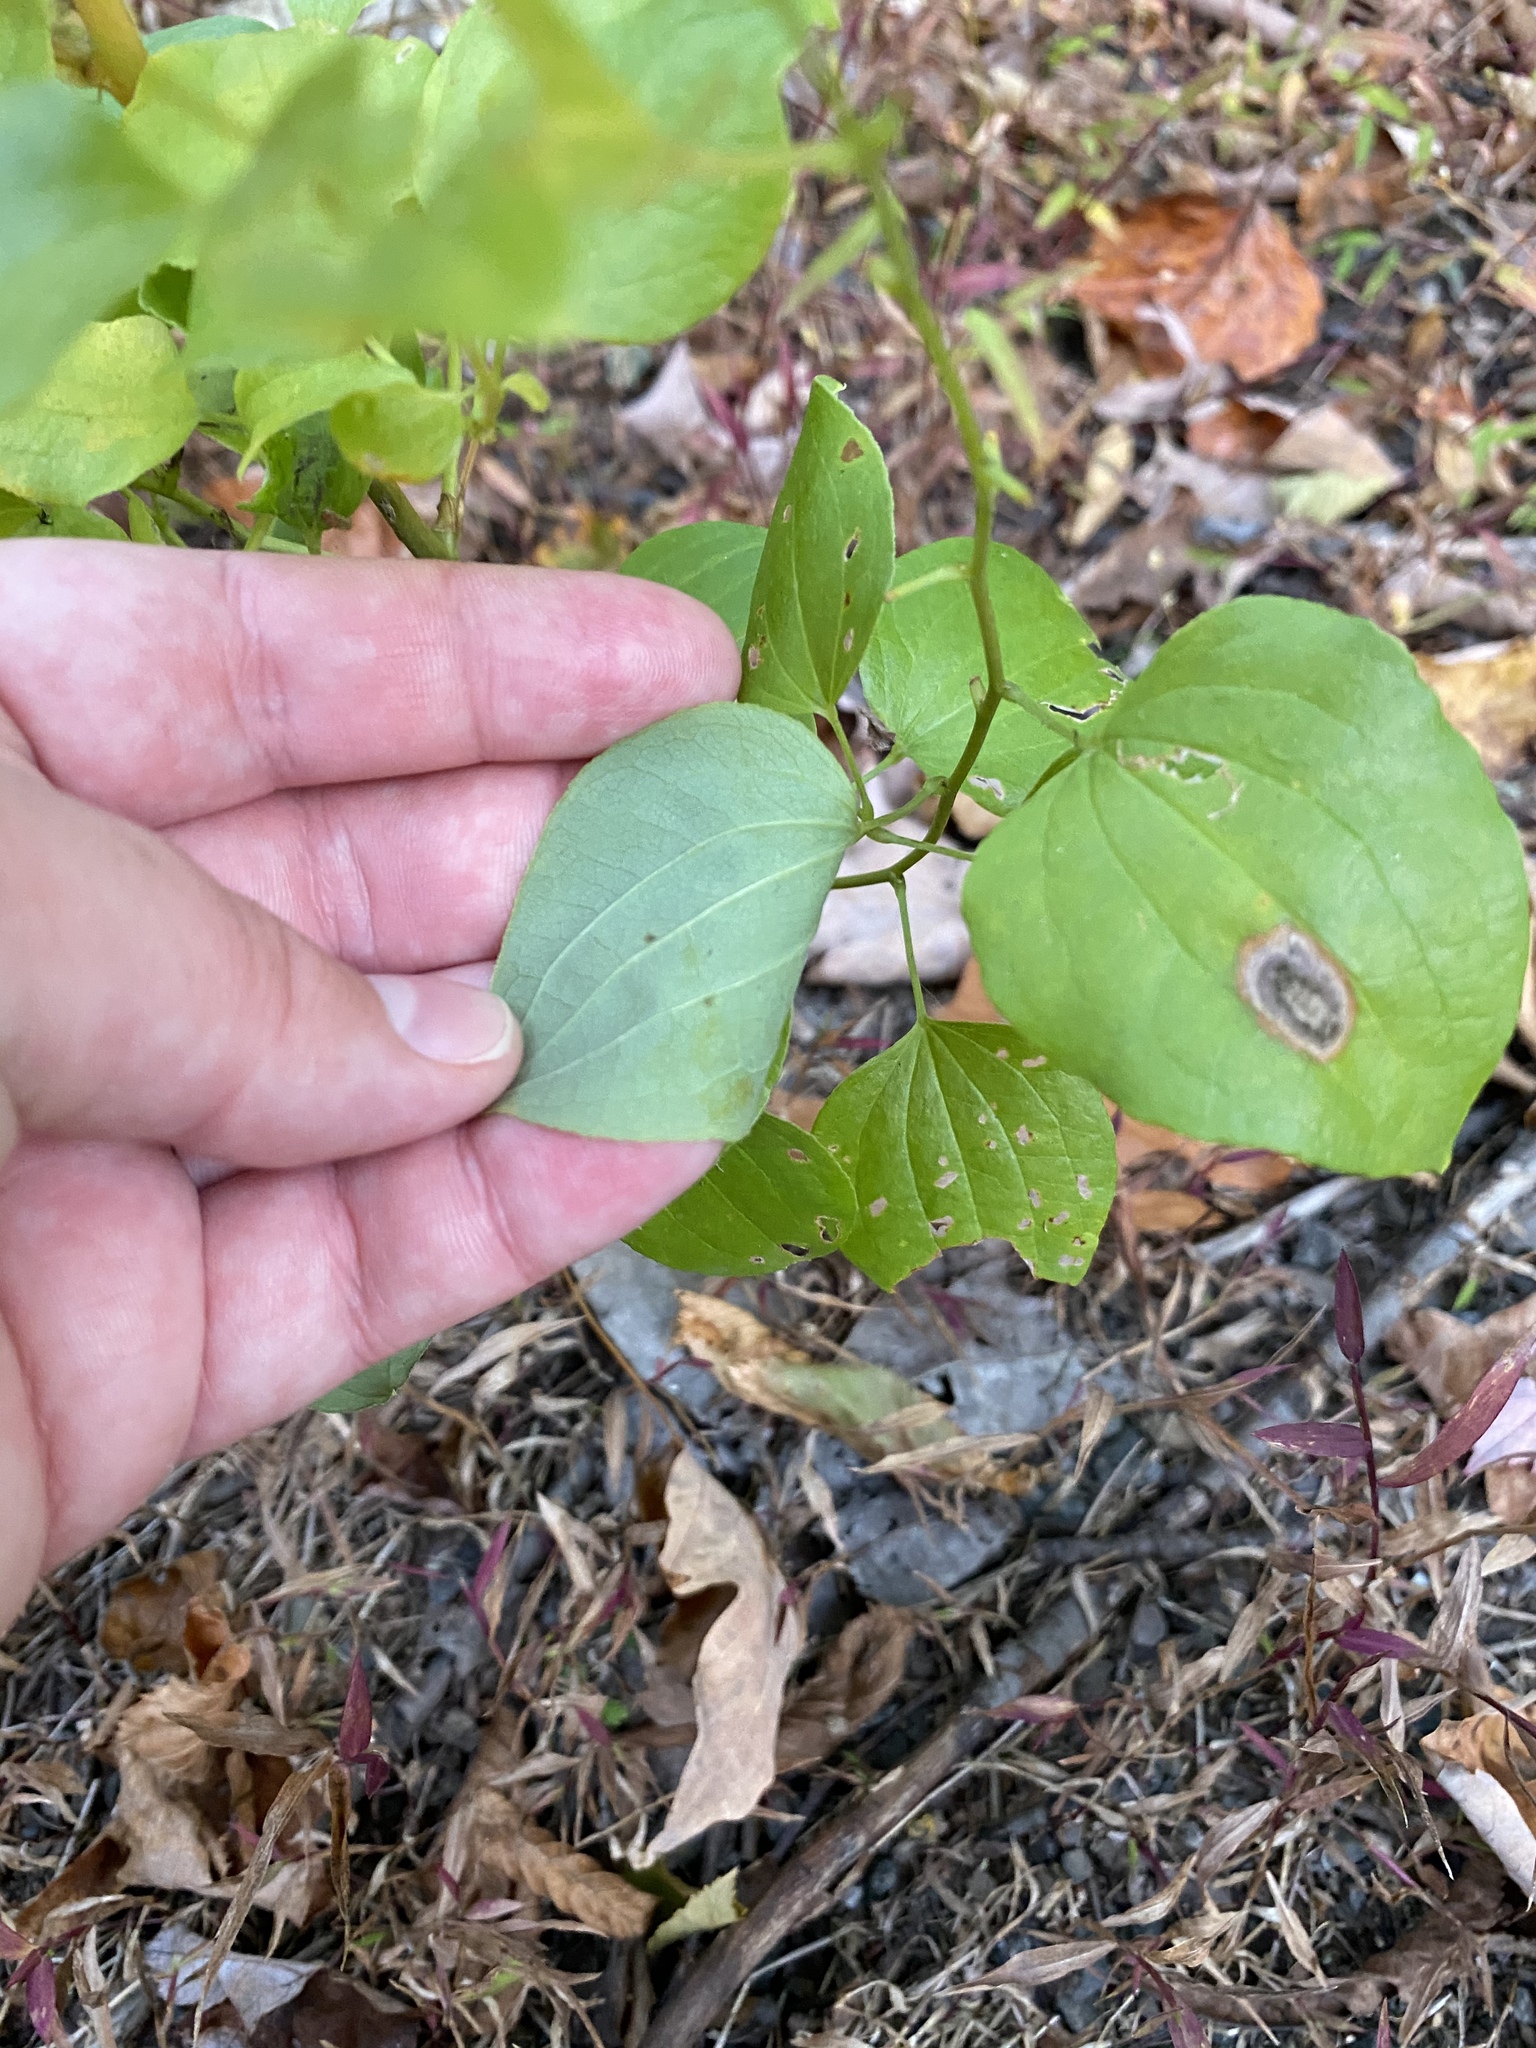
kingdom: Plantae
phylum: Tracheophyta
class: Liliopsida
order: Liliales
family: Smilacaceae
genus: Smilax
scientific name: Smilax herbacea
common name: Jacob's-ladder
